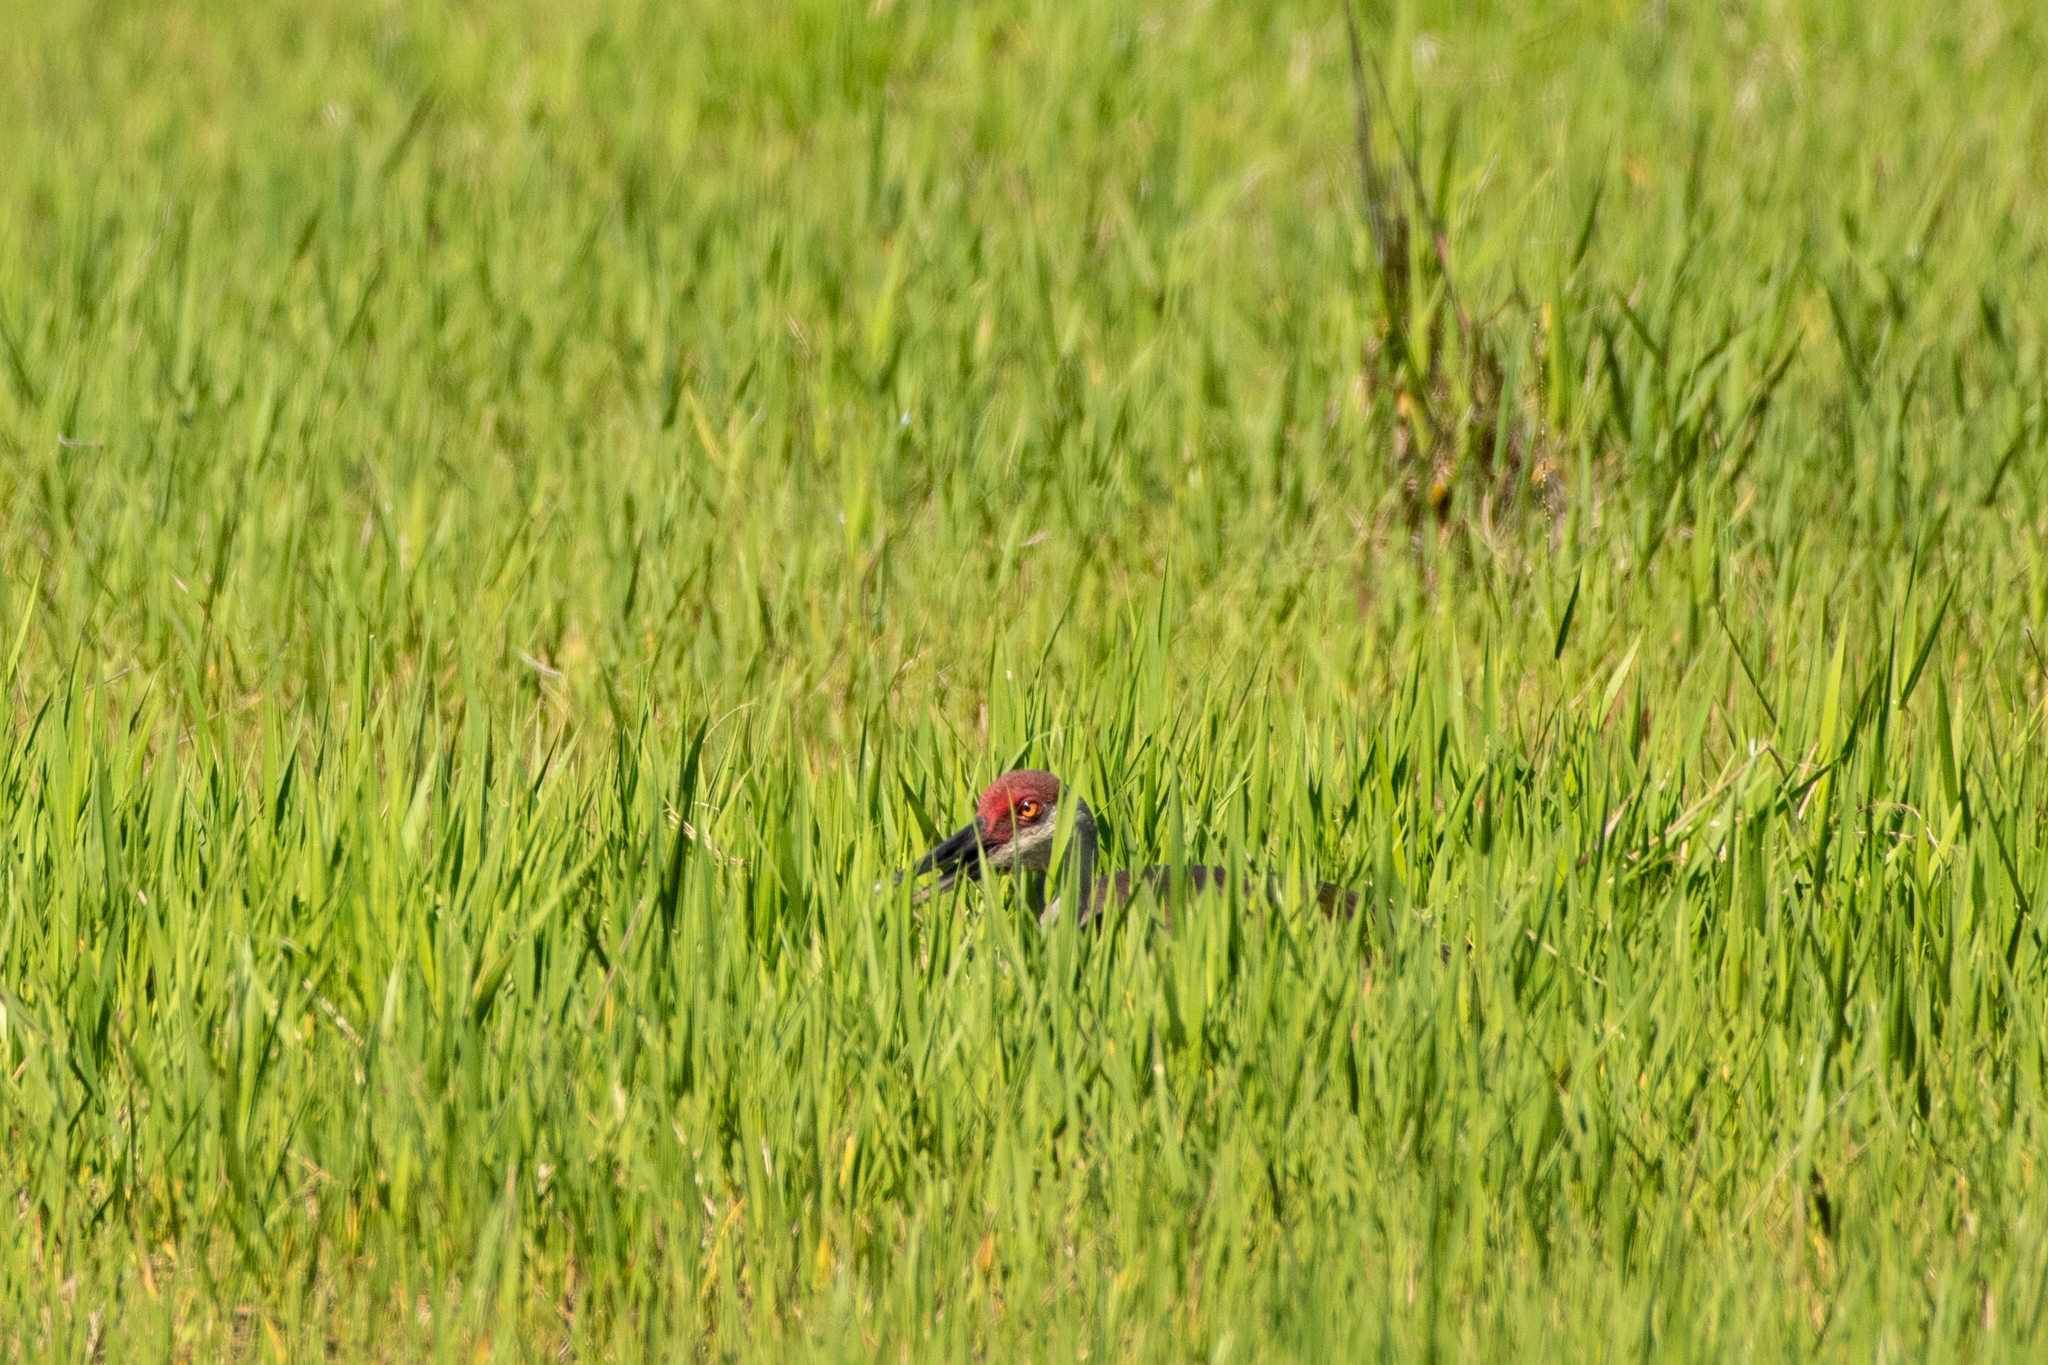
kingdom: Animalia
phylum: Chordata
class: Aves
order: Gruiformes
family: Gruidae
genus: Grus
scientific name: Grus canadensis
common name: Sandhill crane
